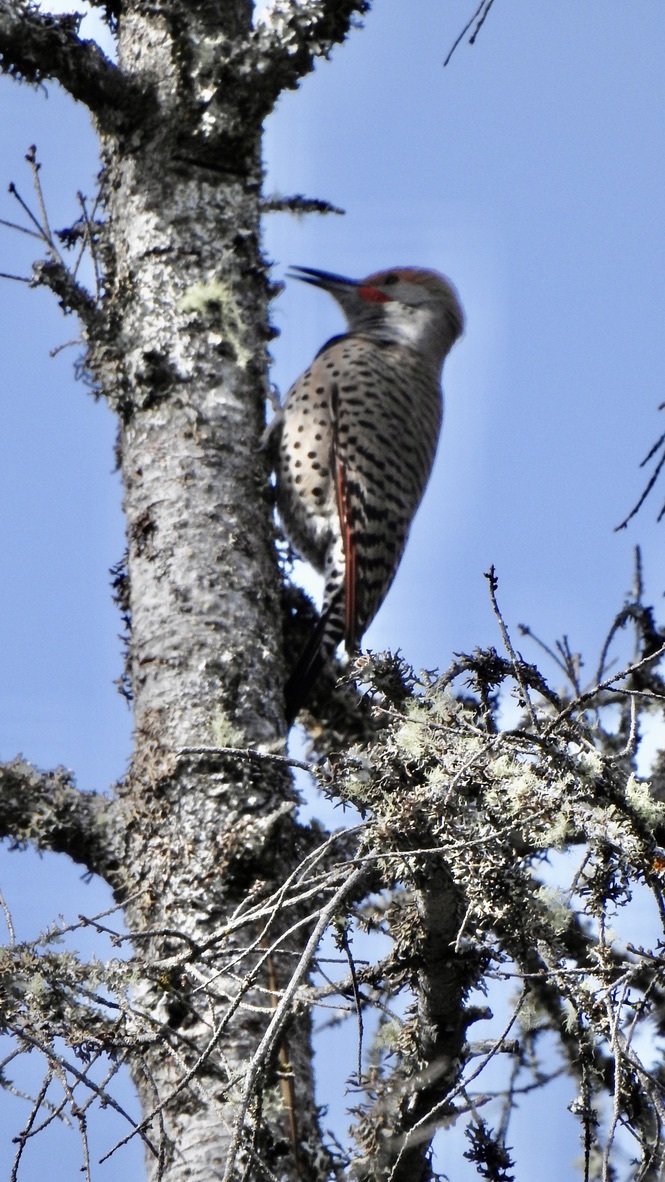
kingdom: Animalia
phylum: Chordata
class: Aves
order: Piciformes
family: Picidae
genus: Colaptes
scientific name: Colaptes auratus
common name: Northern flicker
